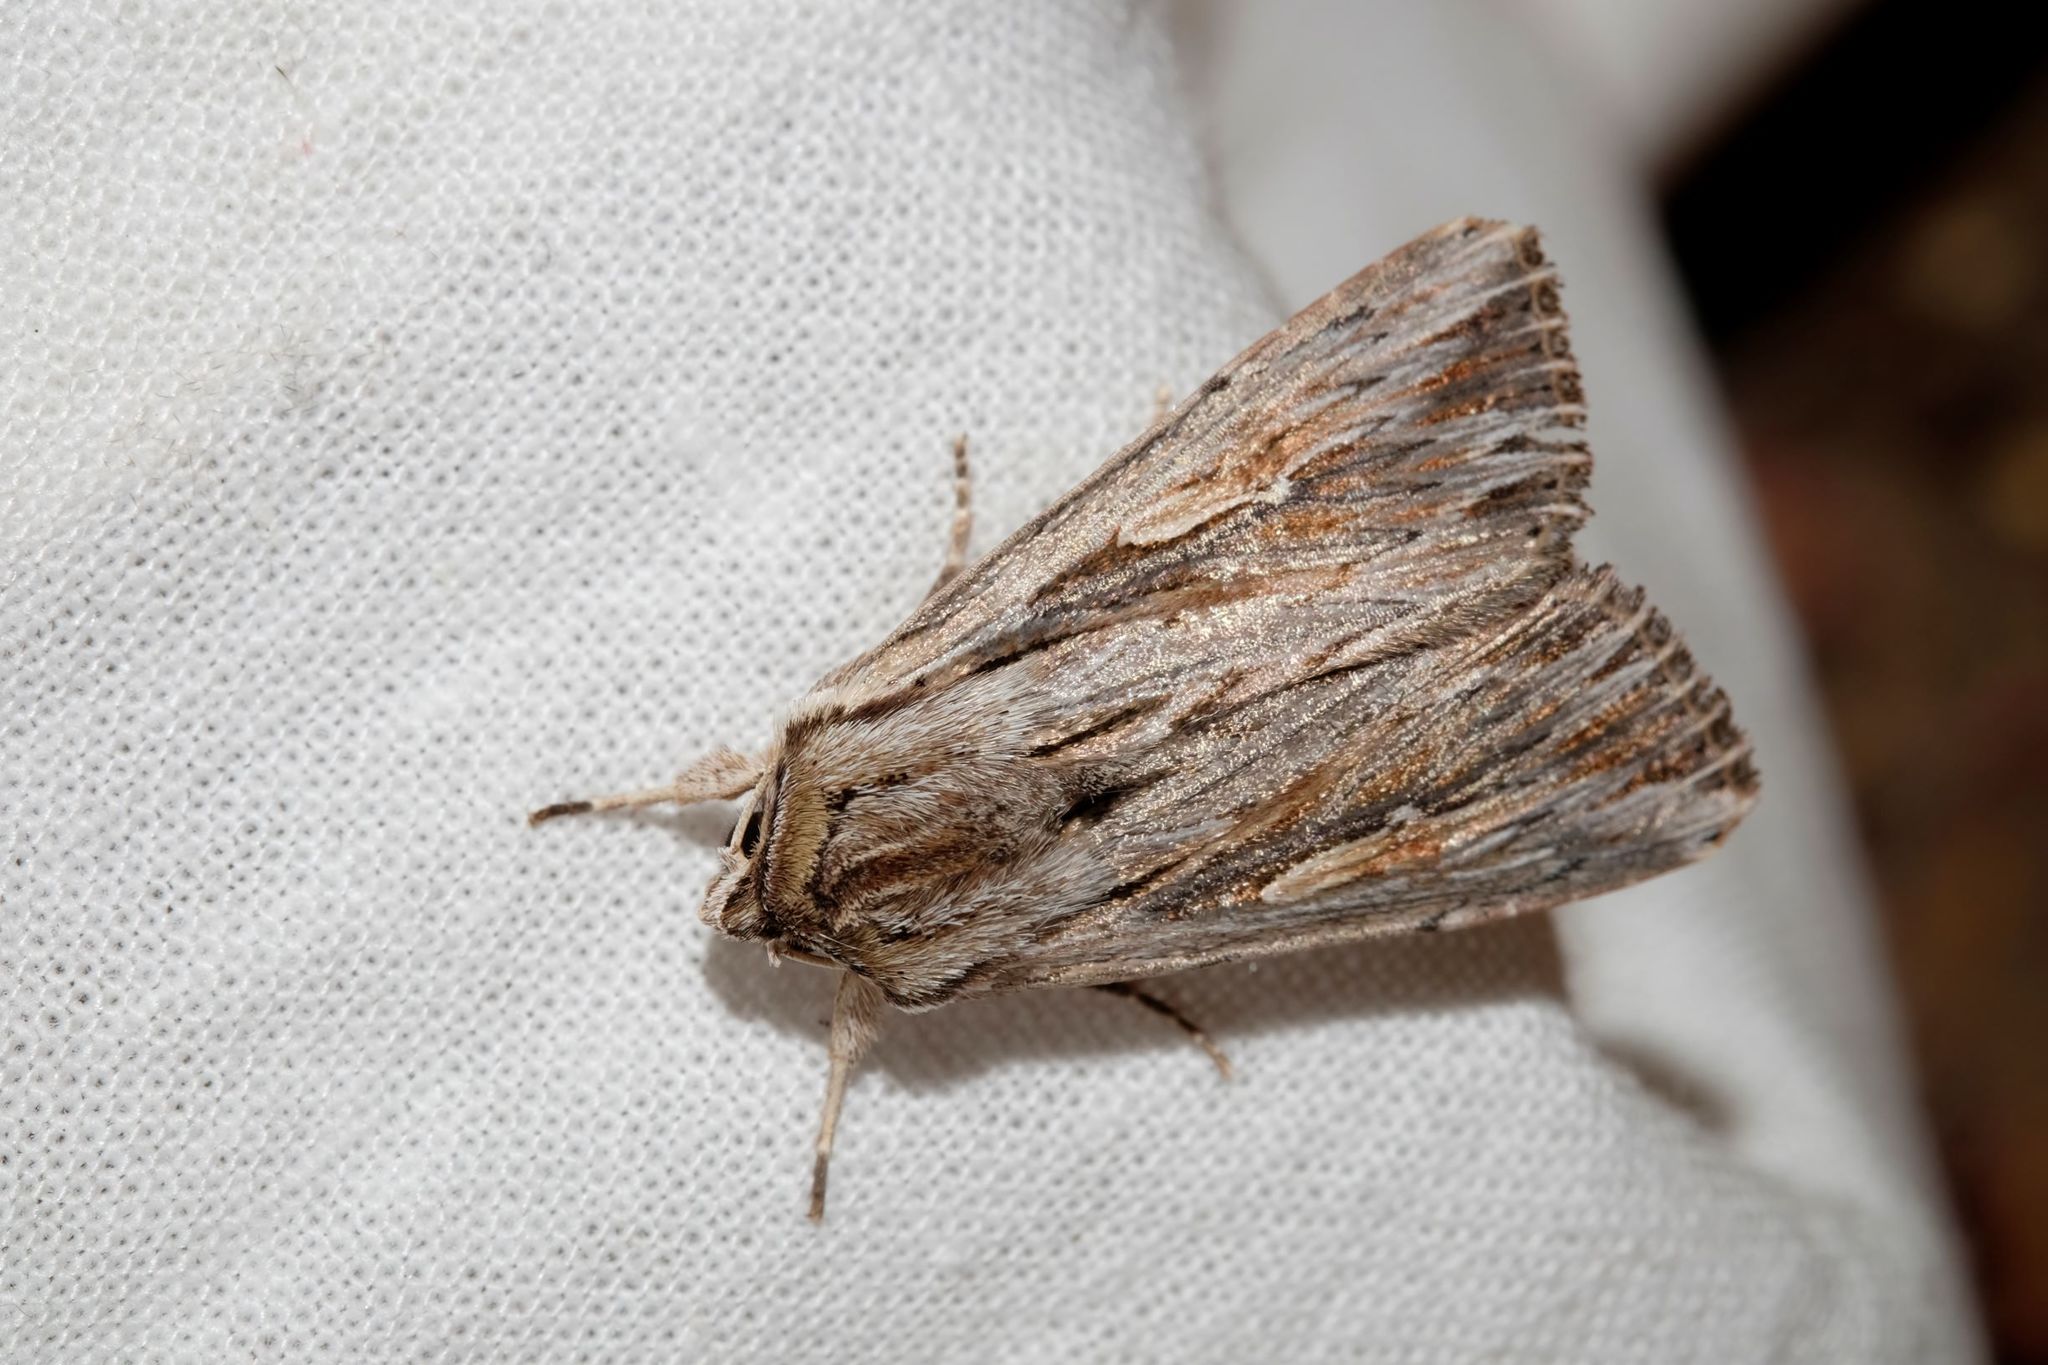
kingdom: Animalia
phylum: Arthropoda
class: Insecta
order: Lepidoptera
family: Noctuidae
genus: Persectania
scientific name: Persectania ewingii
